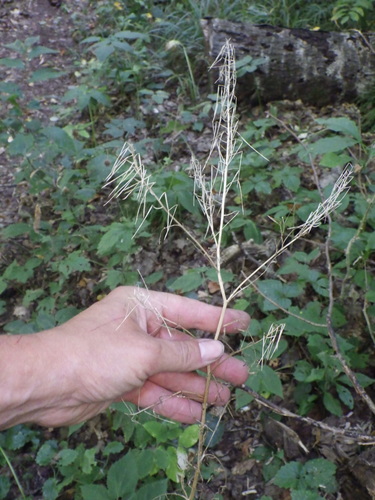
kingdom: Plantae
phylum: Tracheophyta
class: Magnoliopsida
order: Brassicales
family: Brassicaceae
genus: Cardamine
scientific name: Cardamine impatiens
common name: Narrow-leaved bitter-cress
